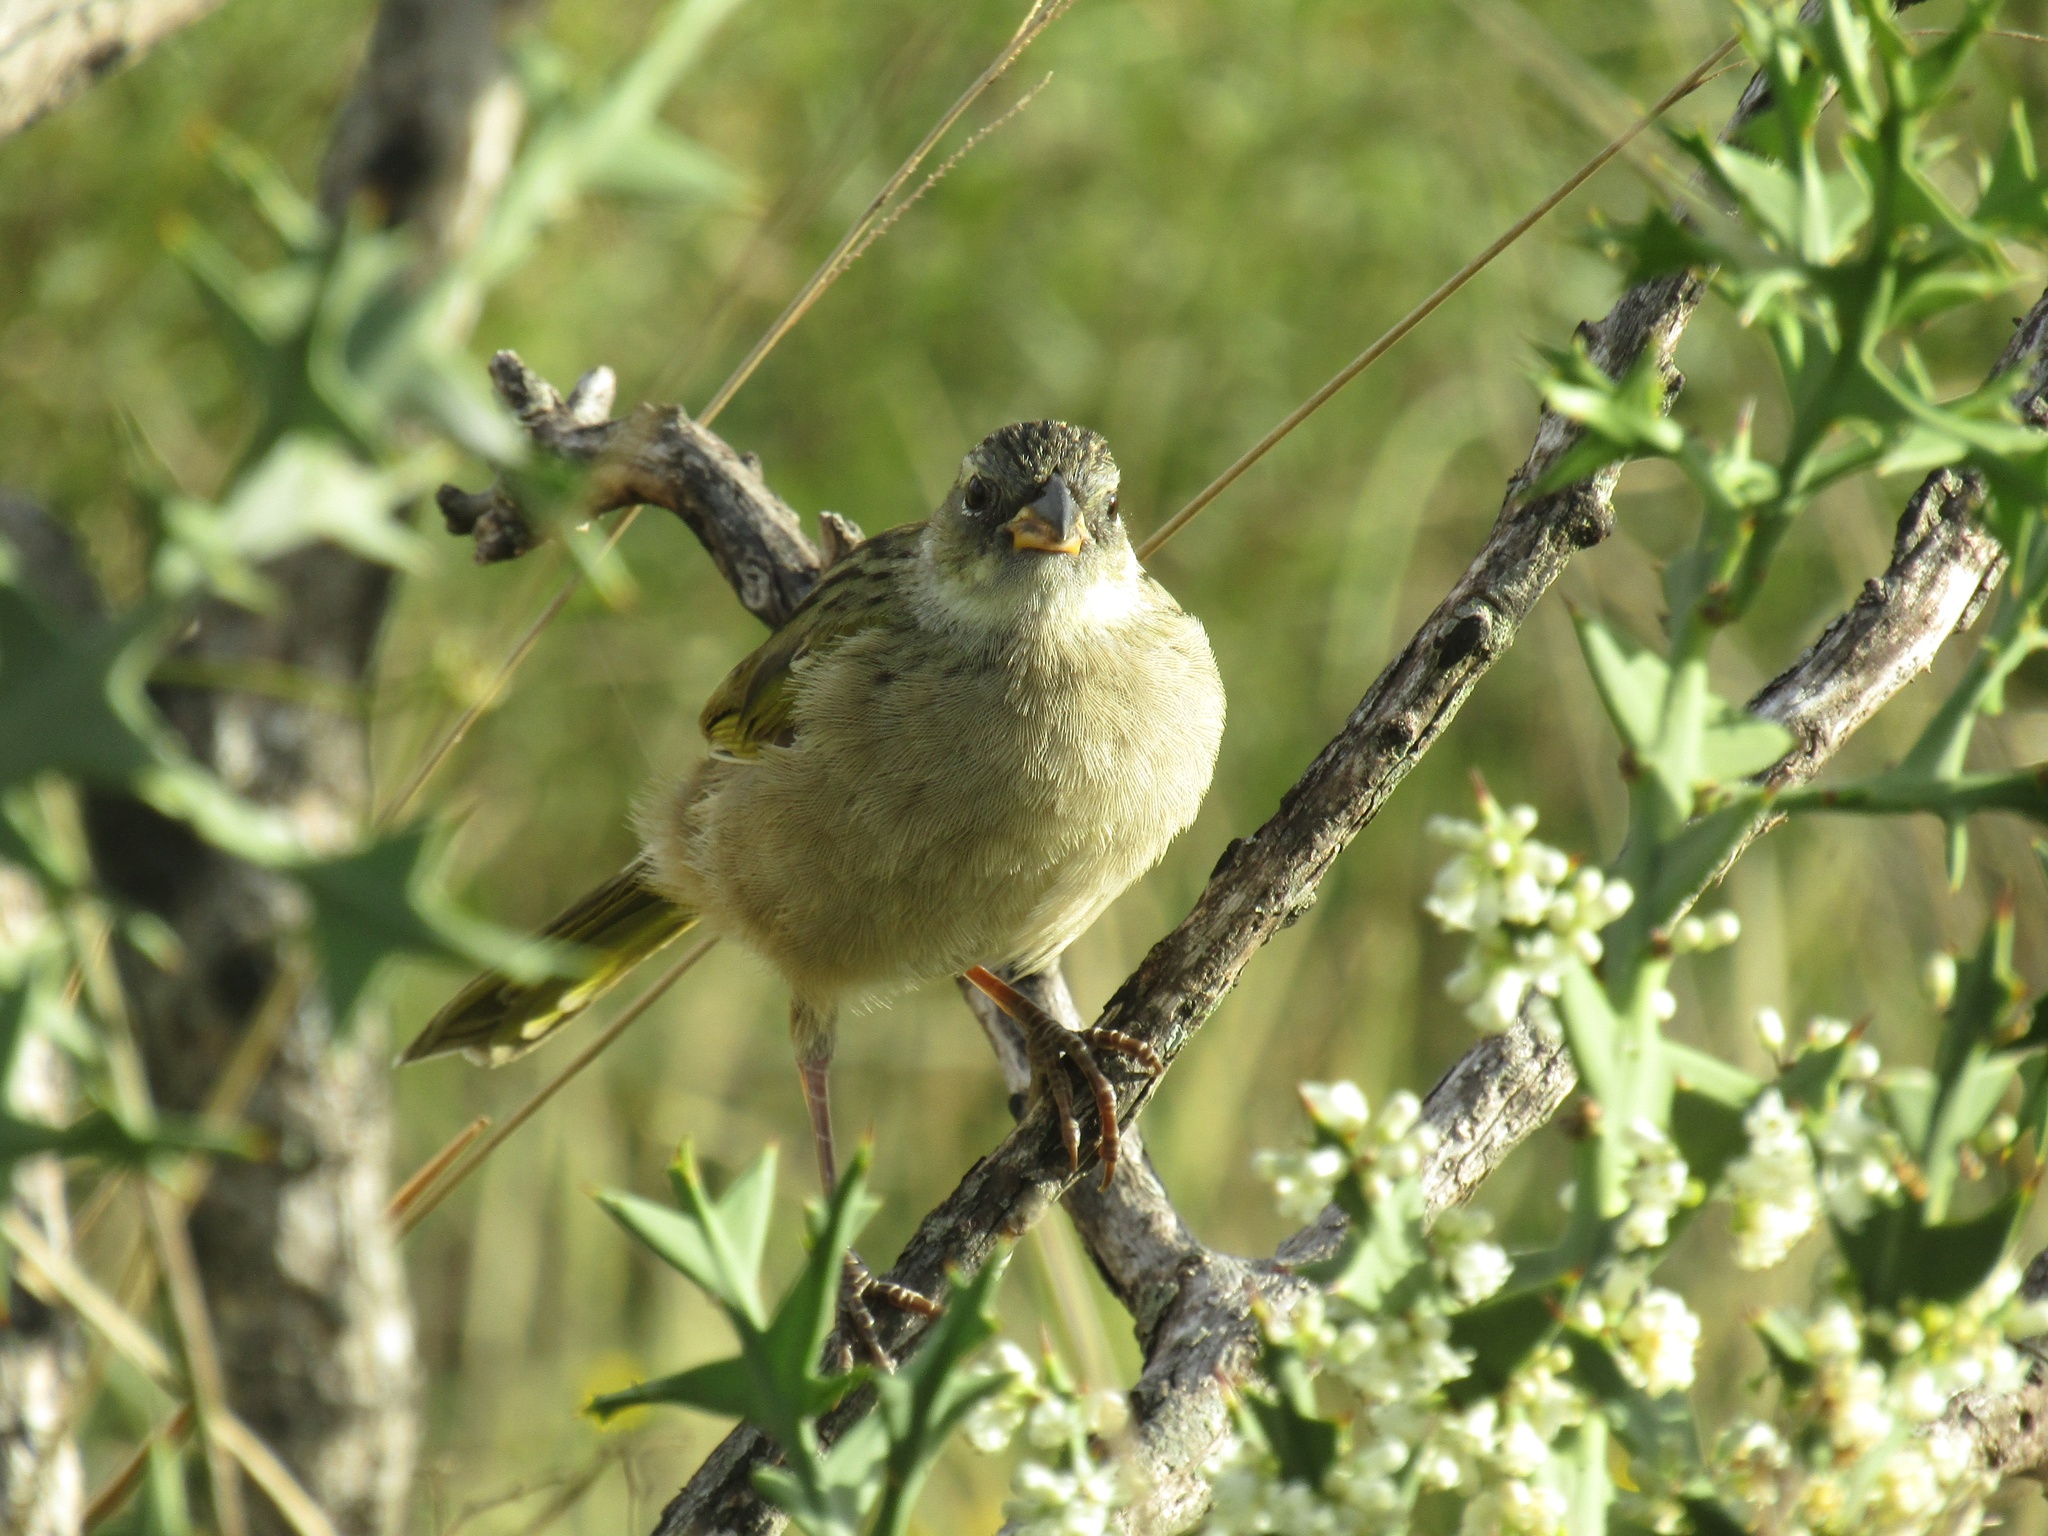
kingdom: Animalia
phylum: Chordata
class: Aves
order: Passeriformes
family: Thraupidae
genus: Embernagra
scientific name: Embernagra platensis
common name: Pampa finch
